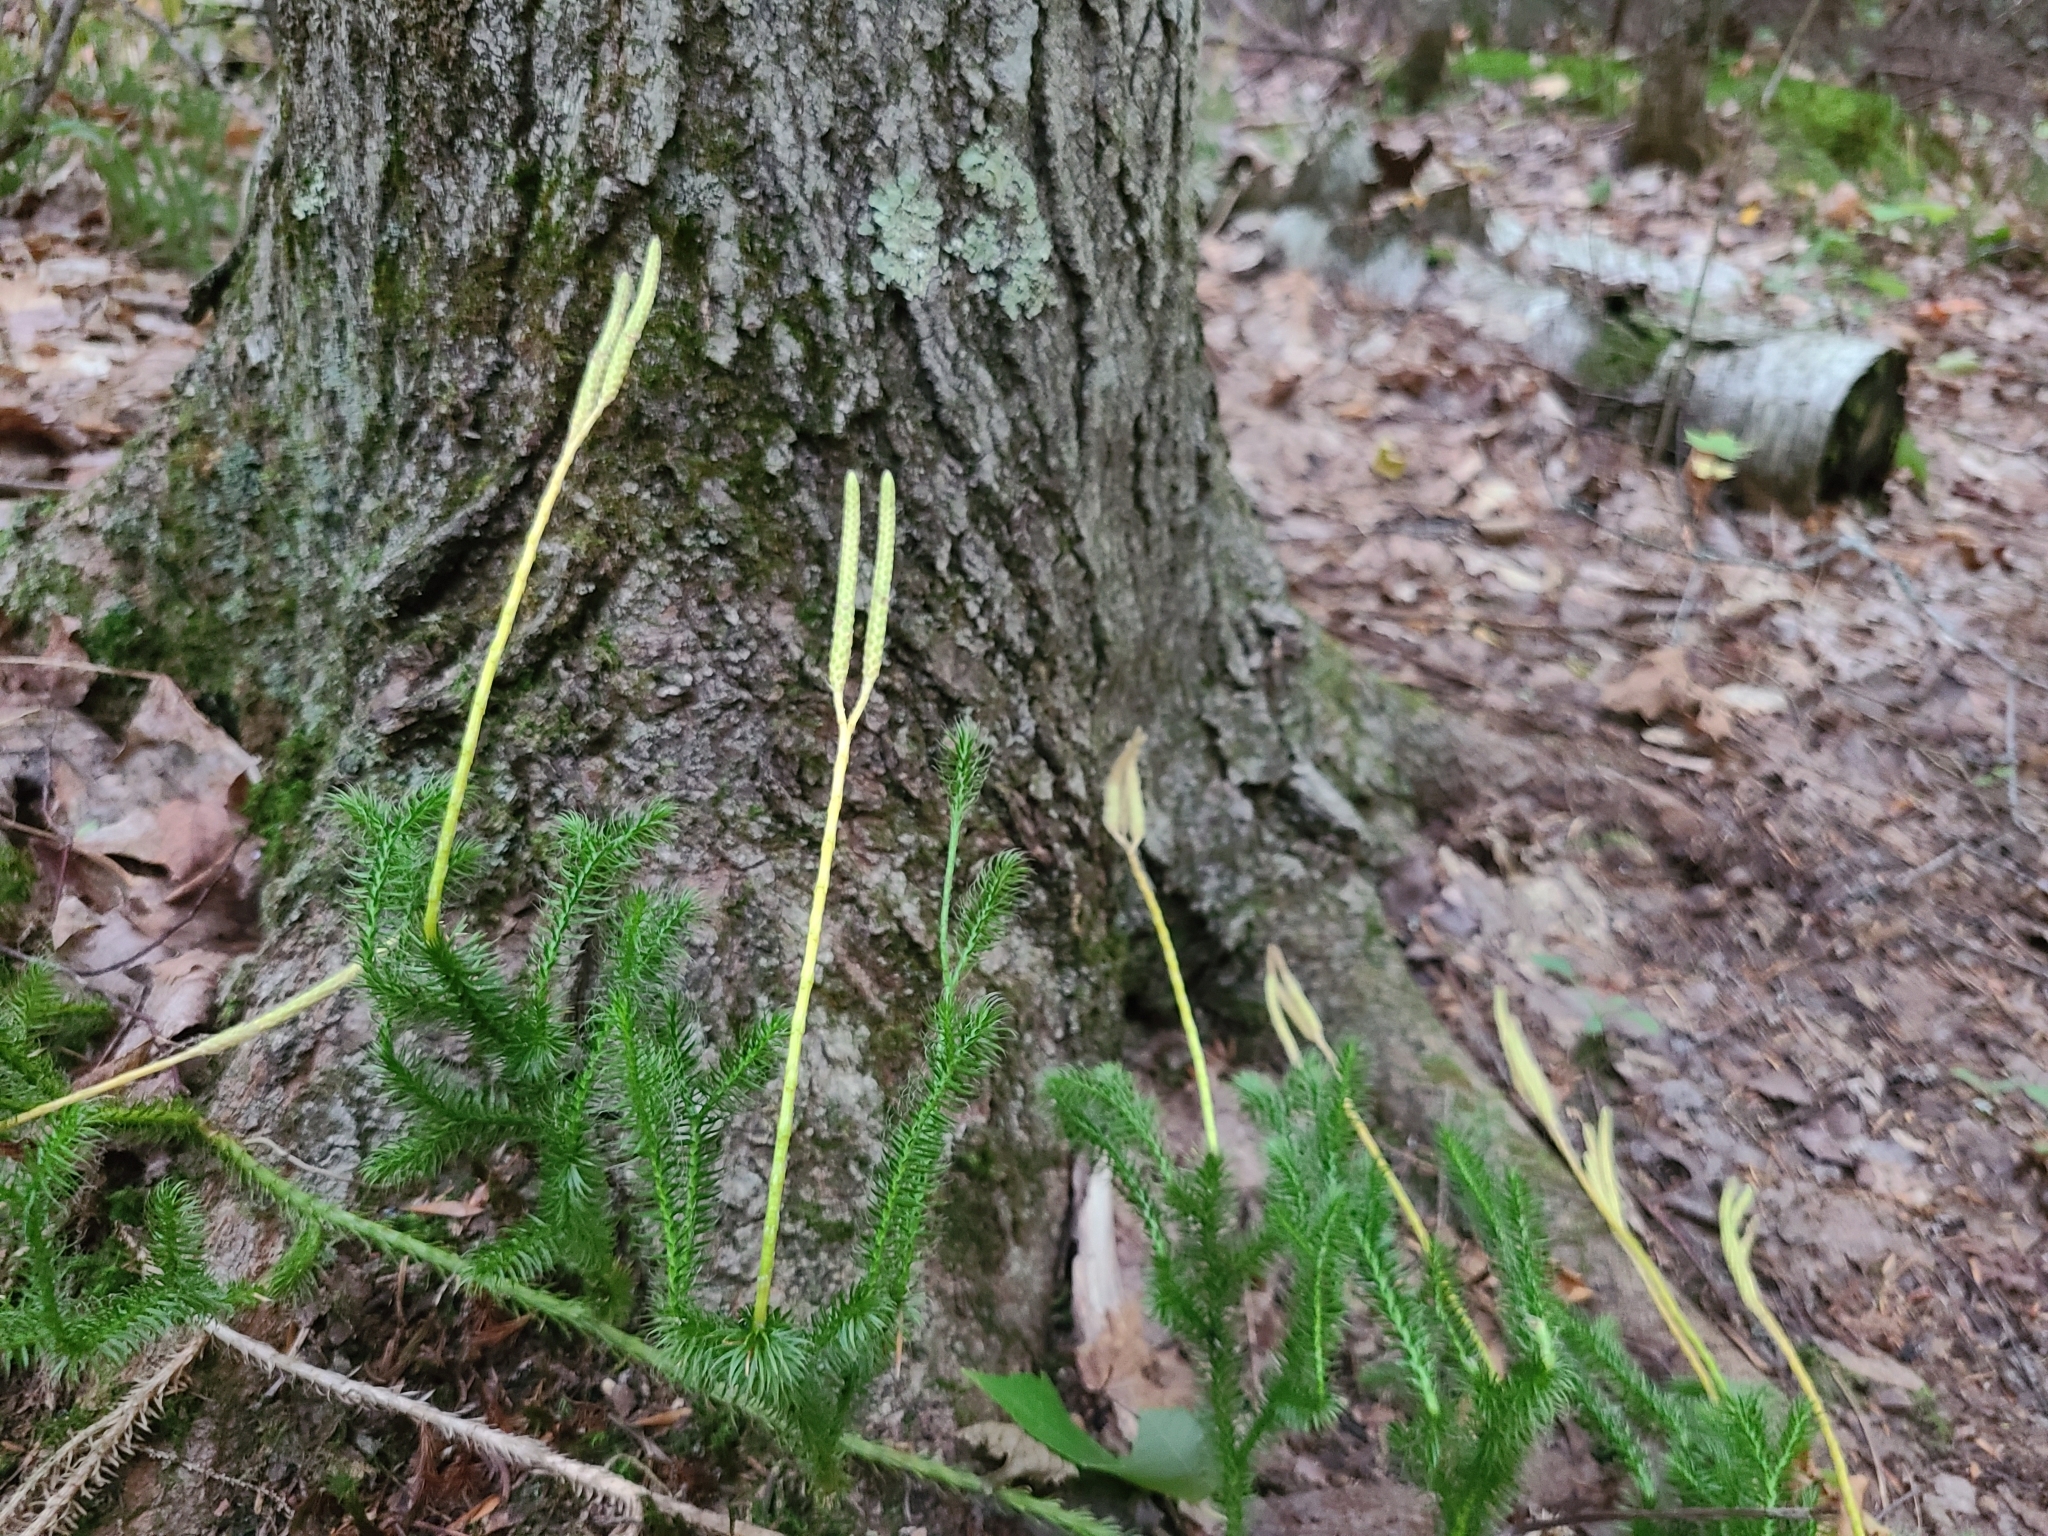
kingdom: Plantae
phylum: Tracheophyta
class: Lycopodiopsida
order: Lycopodiales
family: Lycopodiaceae
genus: Lycopodium
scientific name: Lycopodium clavatum
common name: Stag's-horn clubmoss
